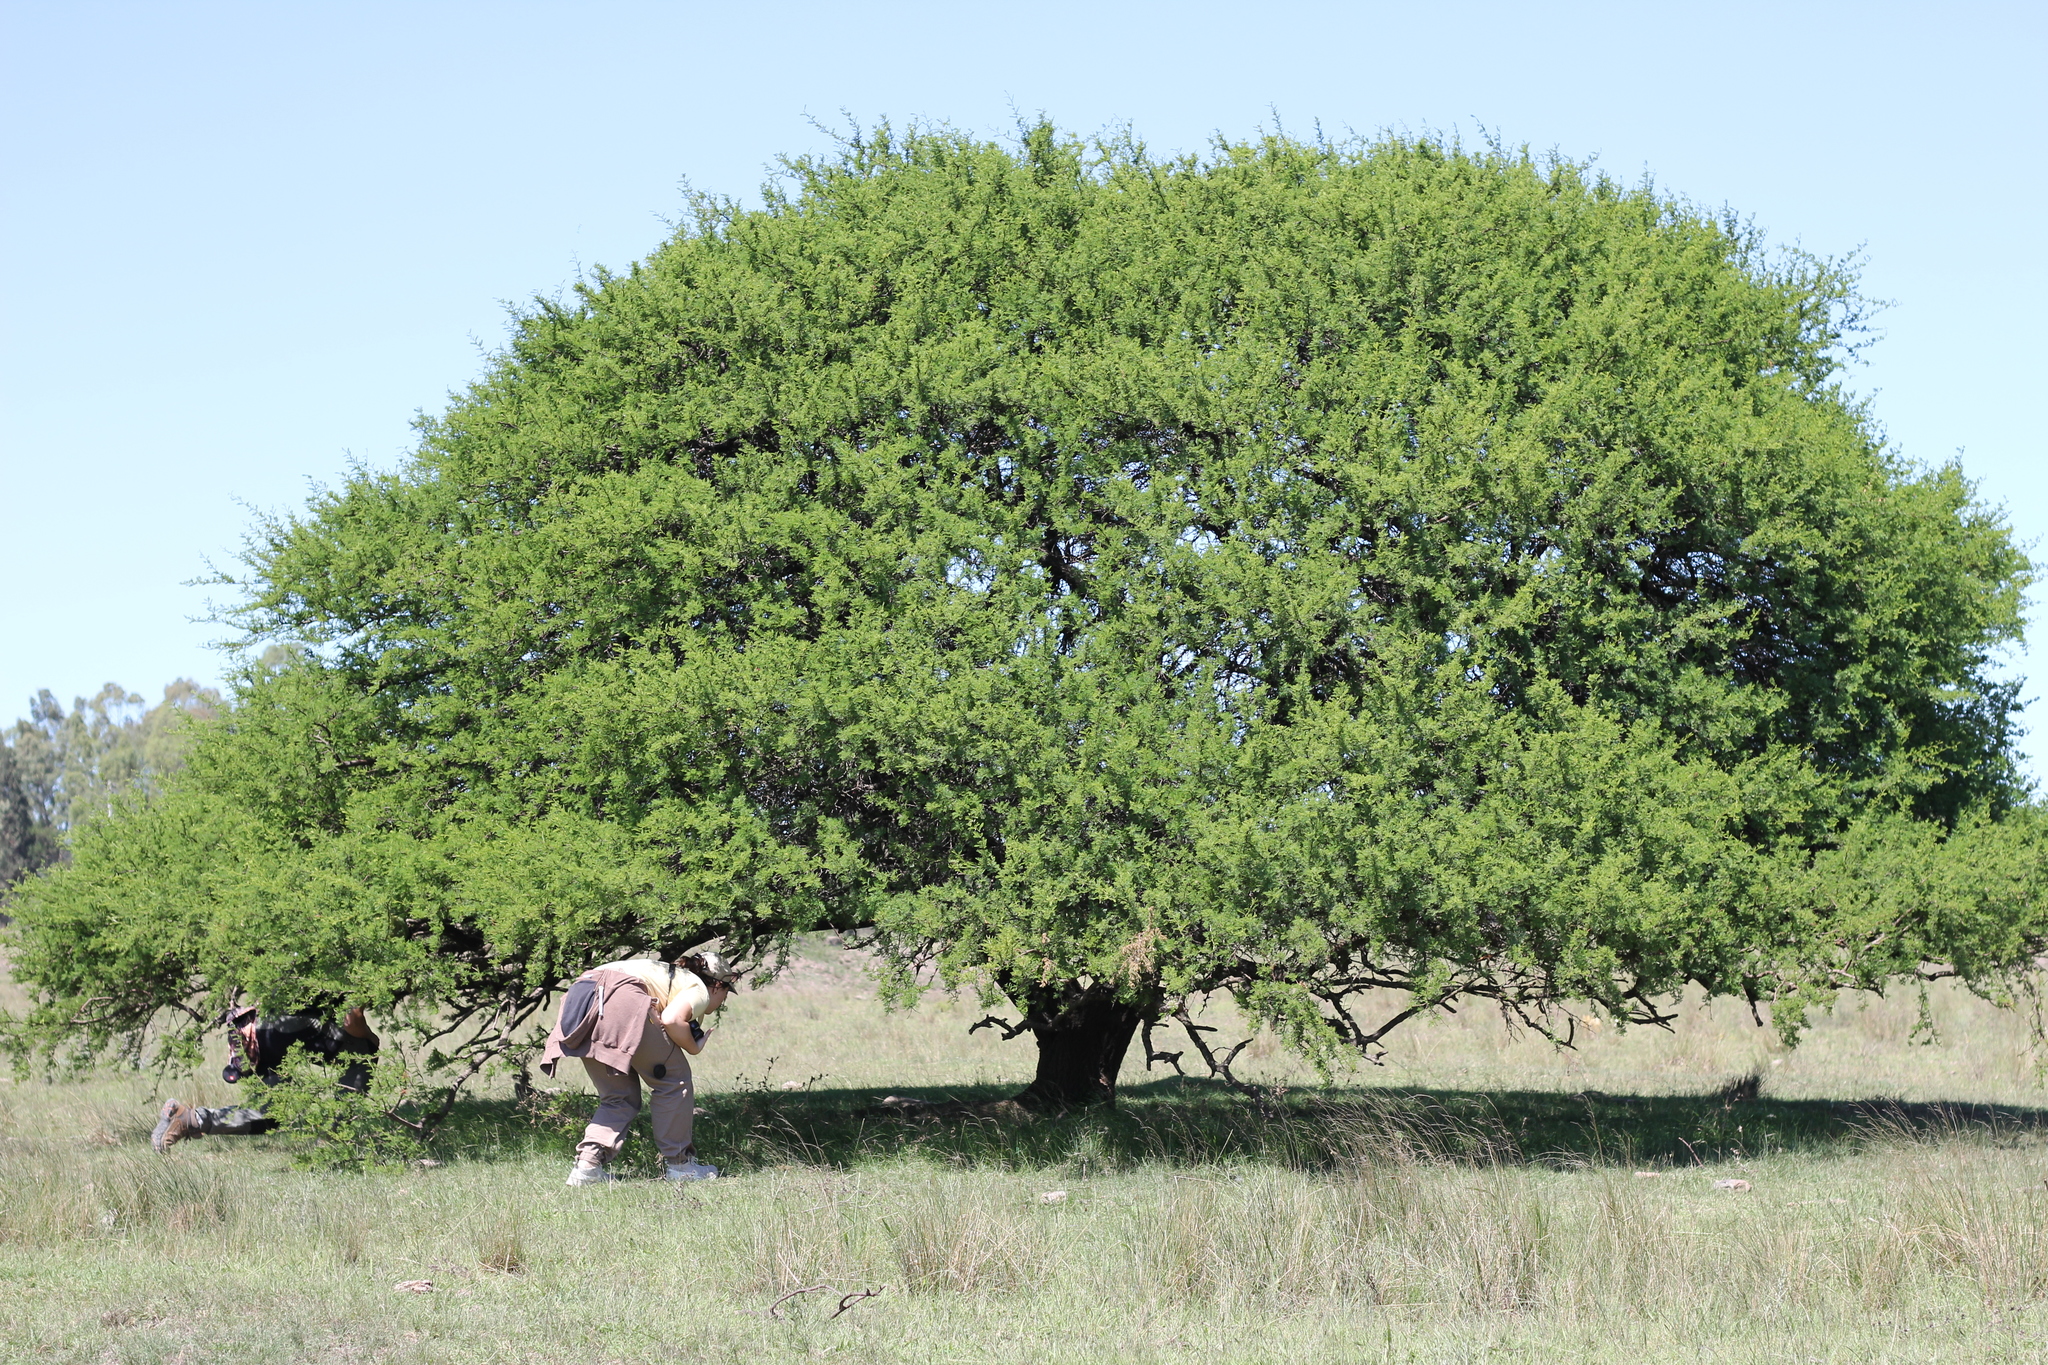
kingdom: Plantae
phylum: Tracheophyta
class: Magnoliopsida
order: Fabales
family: Fabaceae
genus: Vachellia
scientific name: Vachellia caven
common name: Roman cassie
